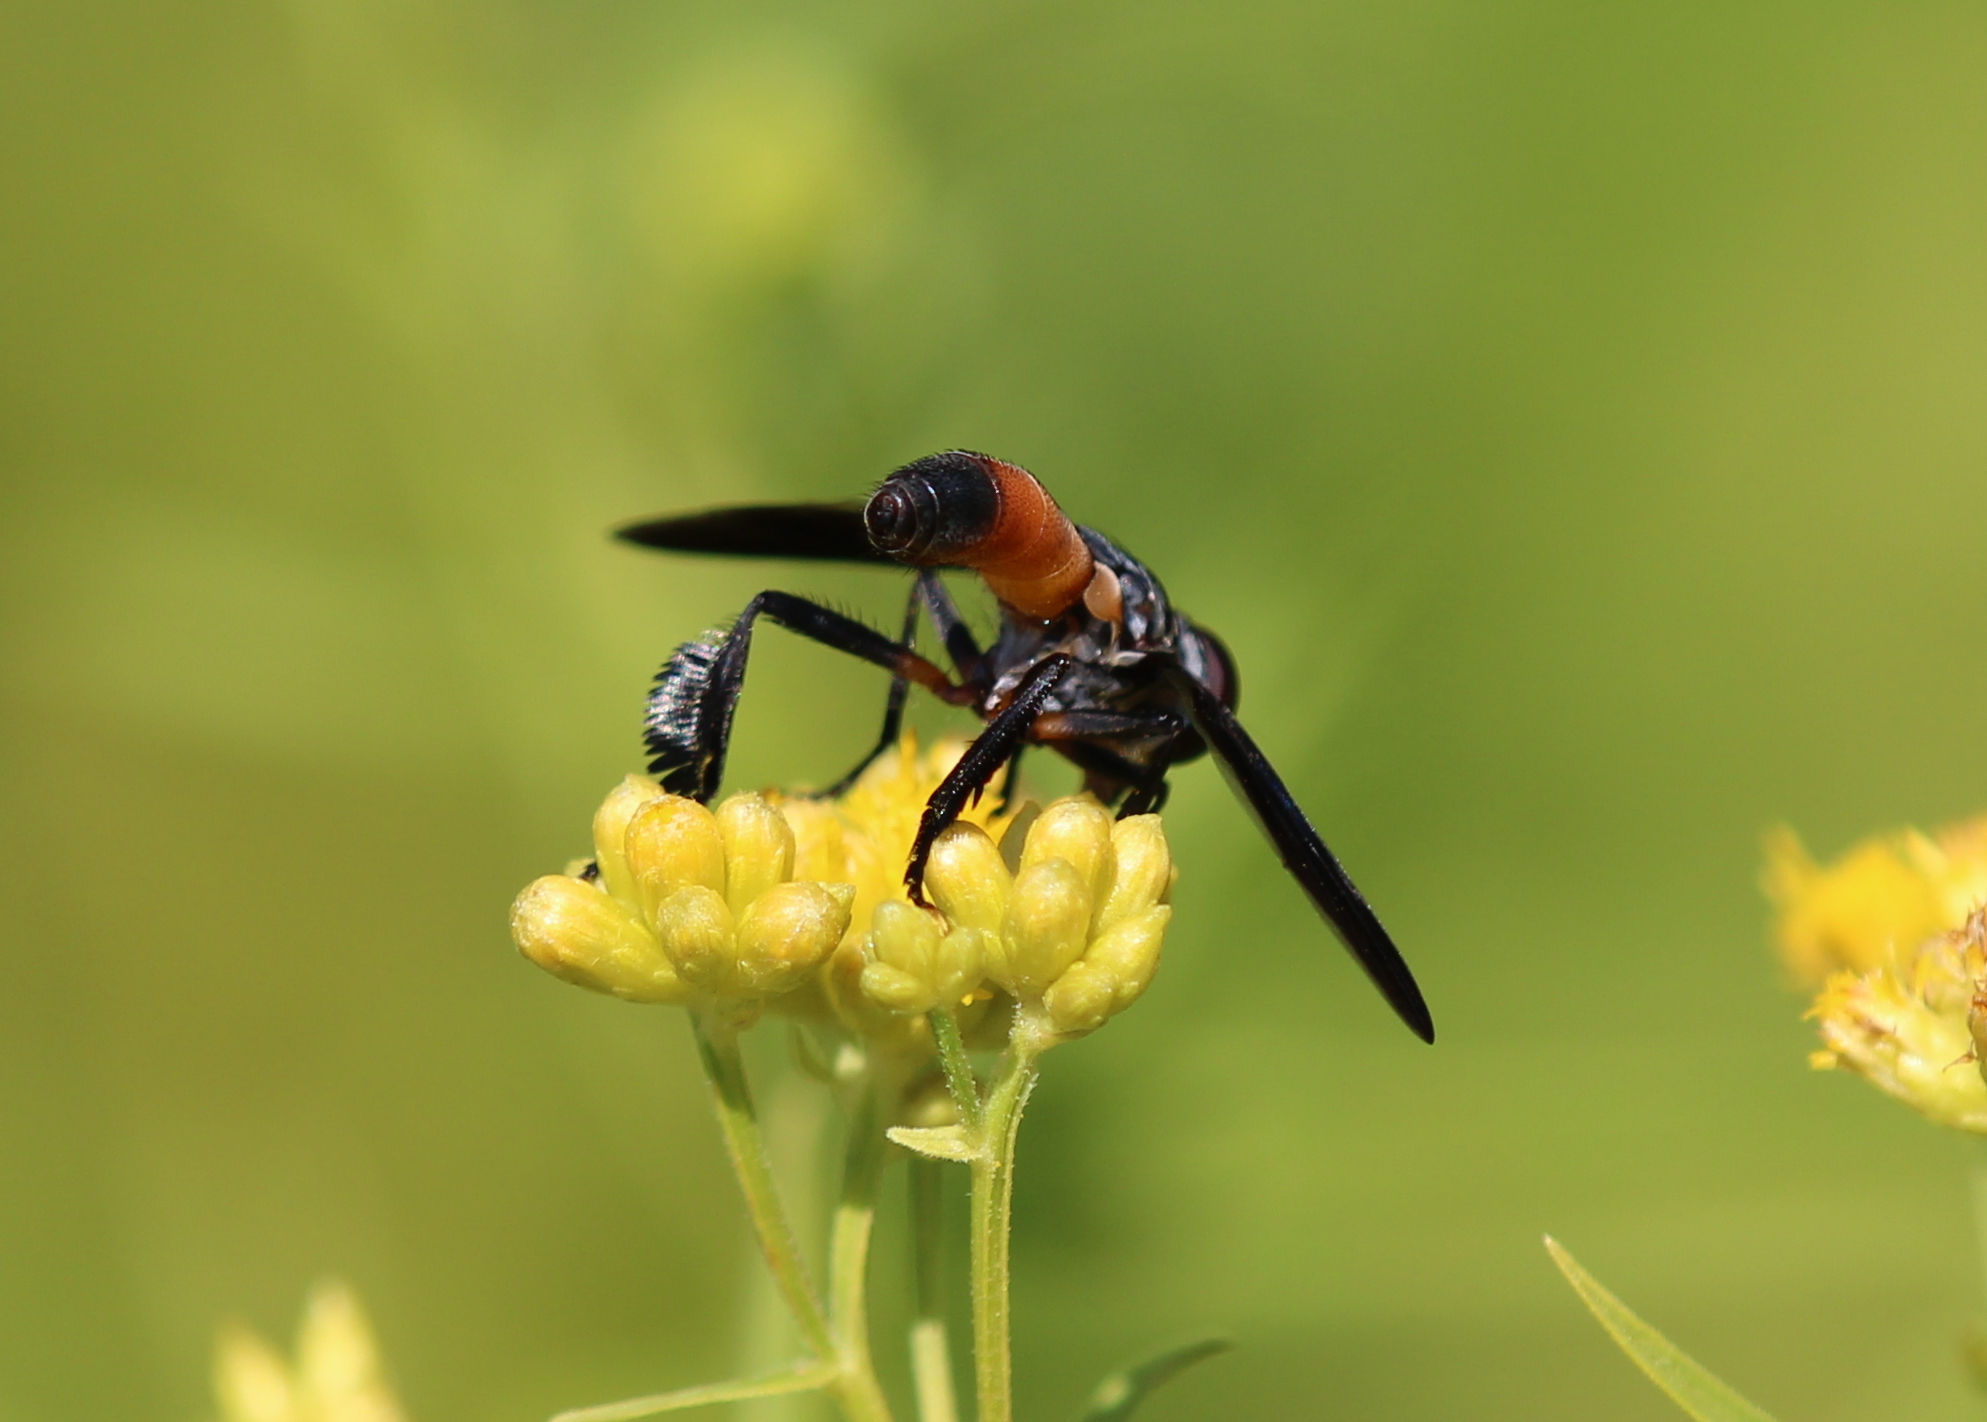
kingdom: Animalia
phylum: Arthropoda
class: Insecta
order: Diptera
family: Tachinidae
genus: Trichopoda
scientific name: Trichopoda pennipes
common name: Tachinid fly
